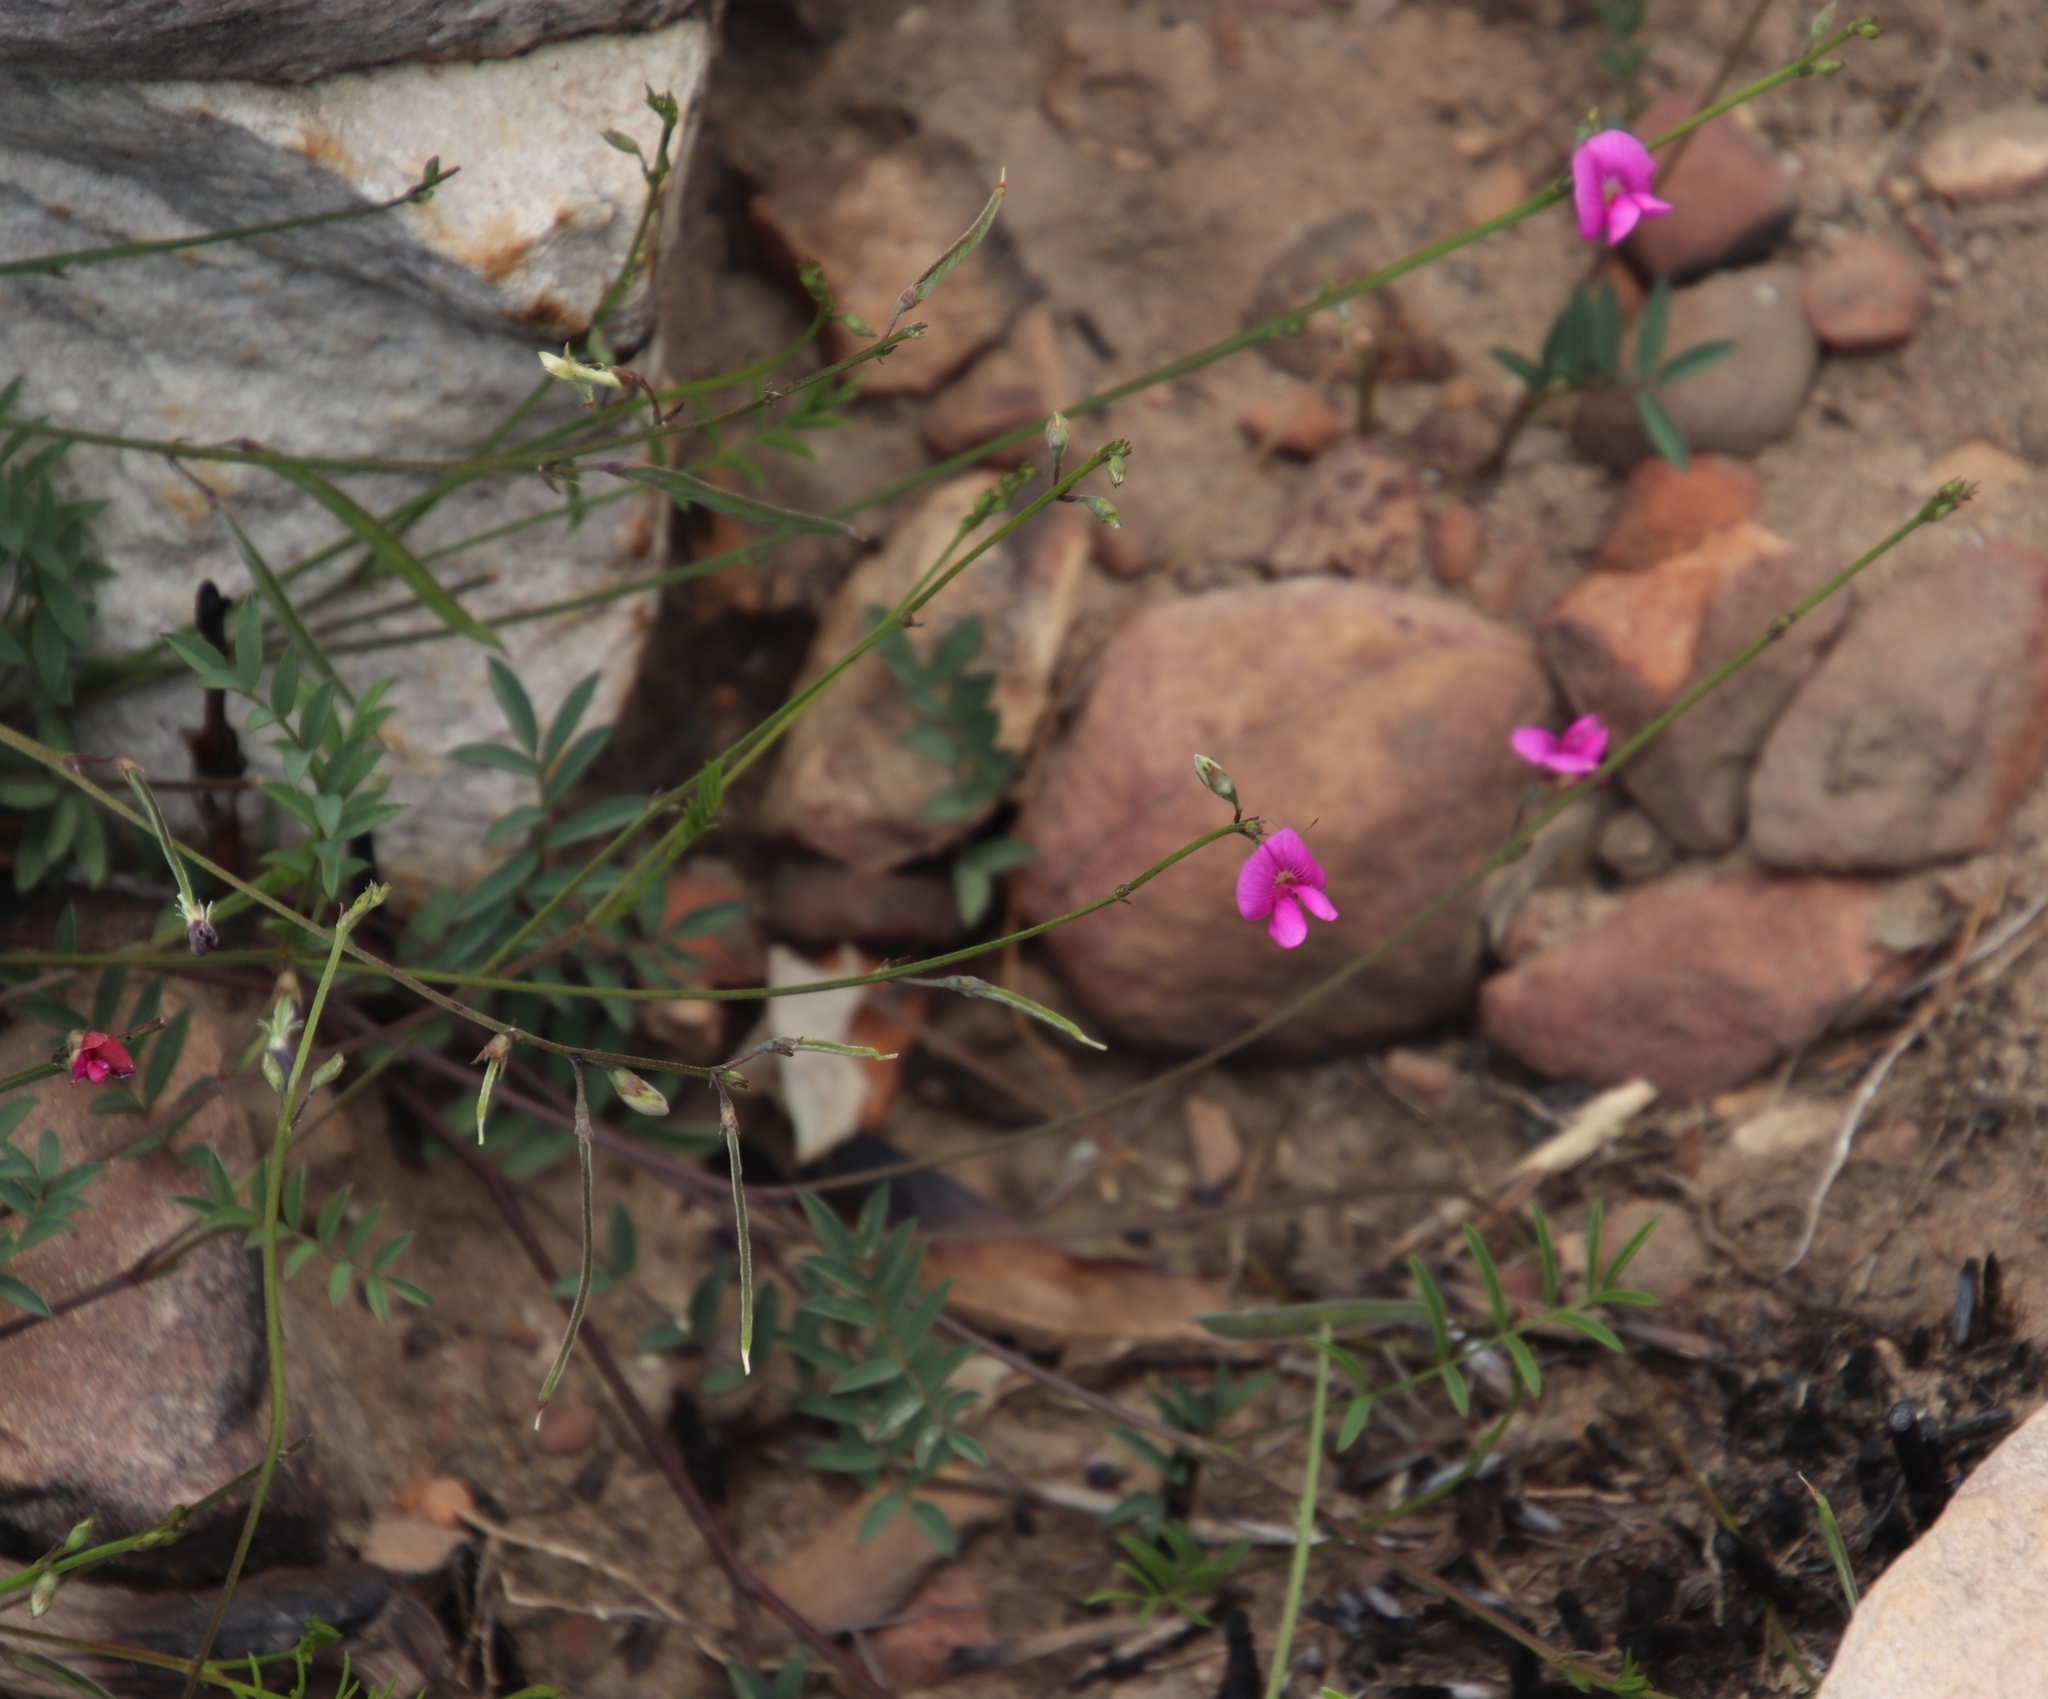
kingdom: Plantae
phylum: Tracheophyta
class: Magnoliopsida
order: Fabales
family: Fabaceae
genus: Tephrosia
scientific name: Tephrosia capensis
